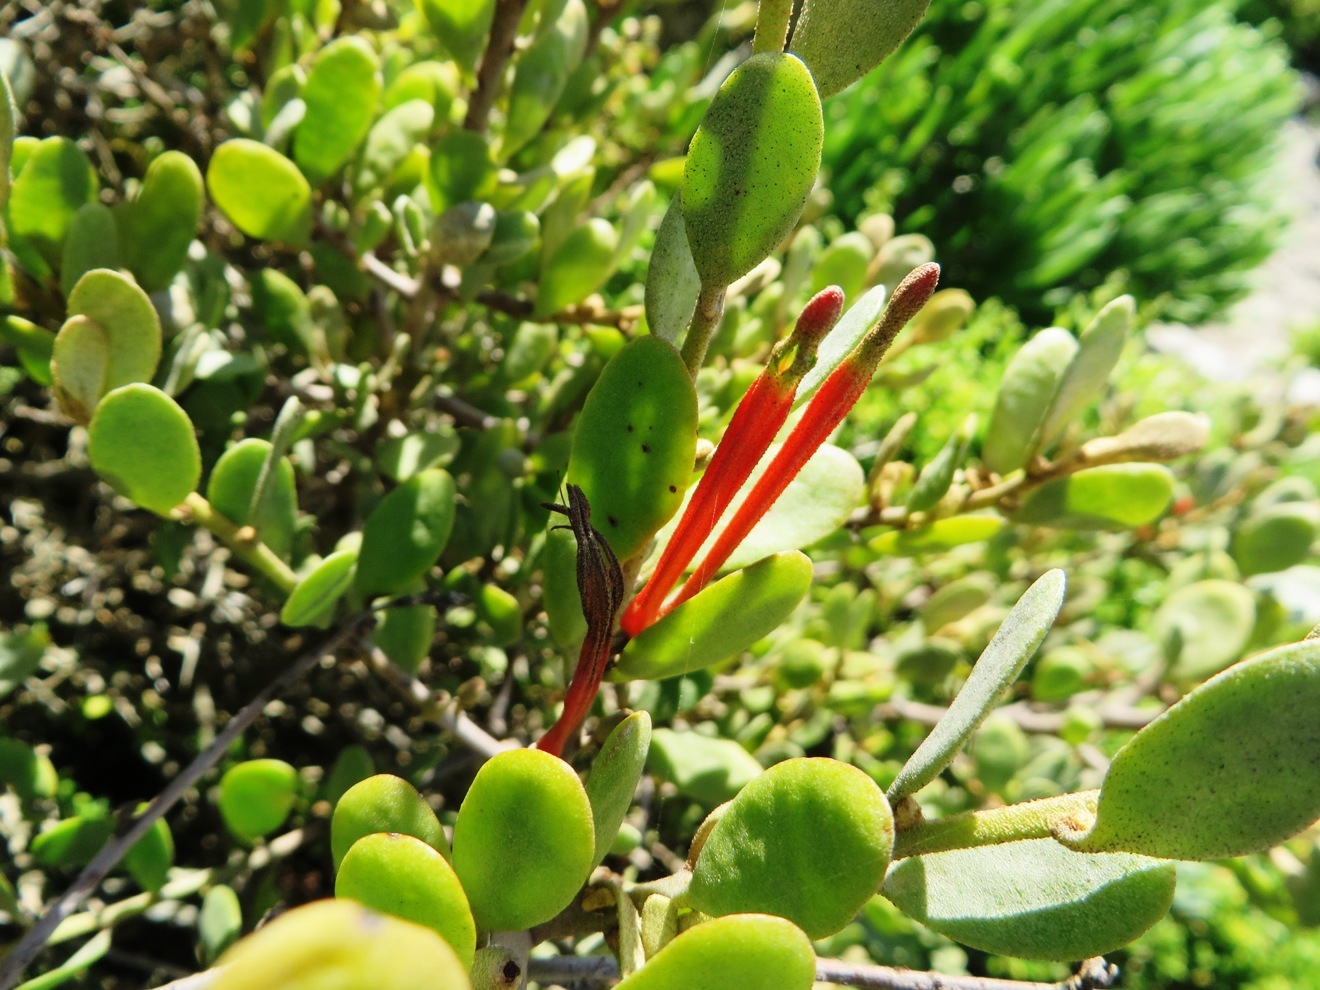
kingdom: Plantae
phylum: Tracheophyta
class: Magnoliopsida
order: Santalales
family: Loranthaceae
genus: Septulina
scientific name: Septulina glauca
